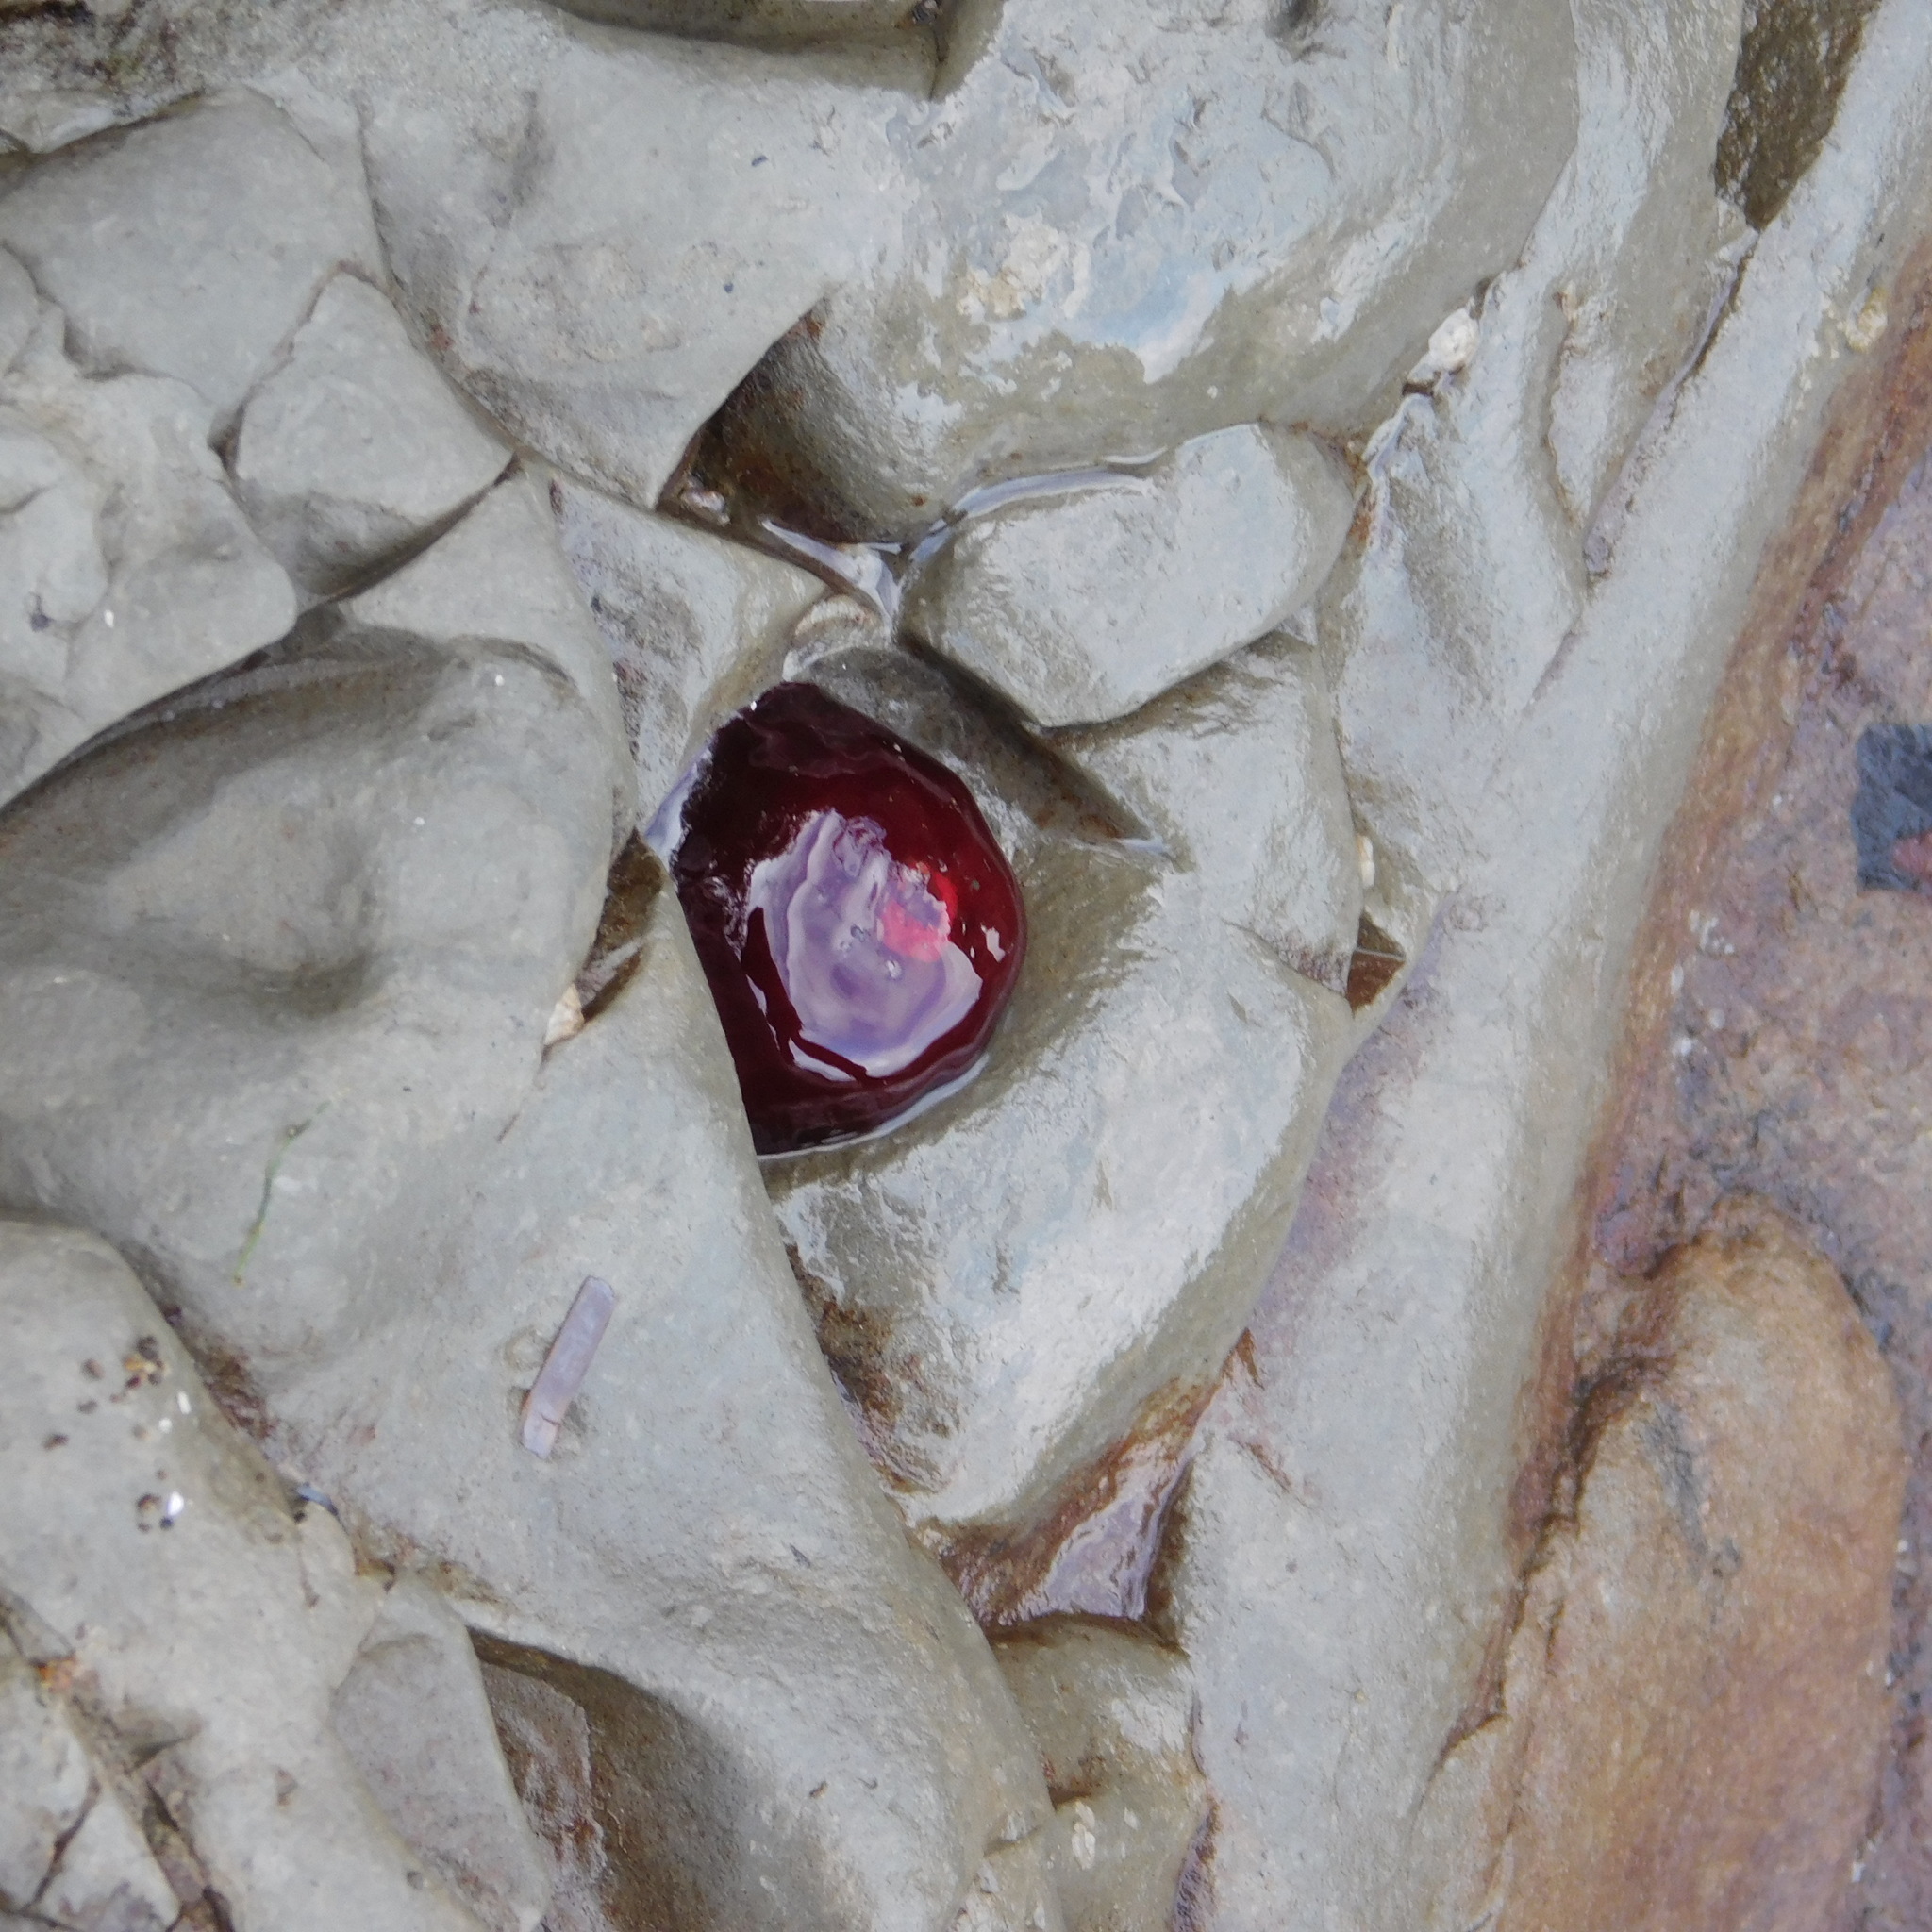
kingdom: Animalia
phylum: Cnidaria
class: Anthozoa
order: Actiniaria
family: Actiniidae
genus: Actinia
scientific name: Actinia tenebrosa
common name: Waratah anemone
